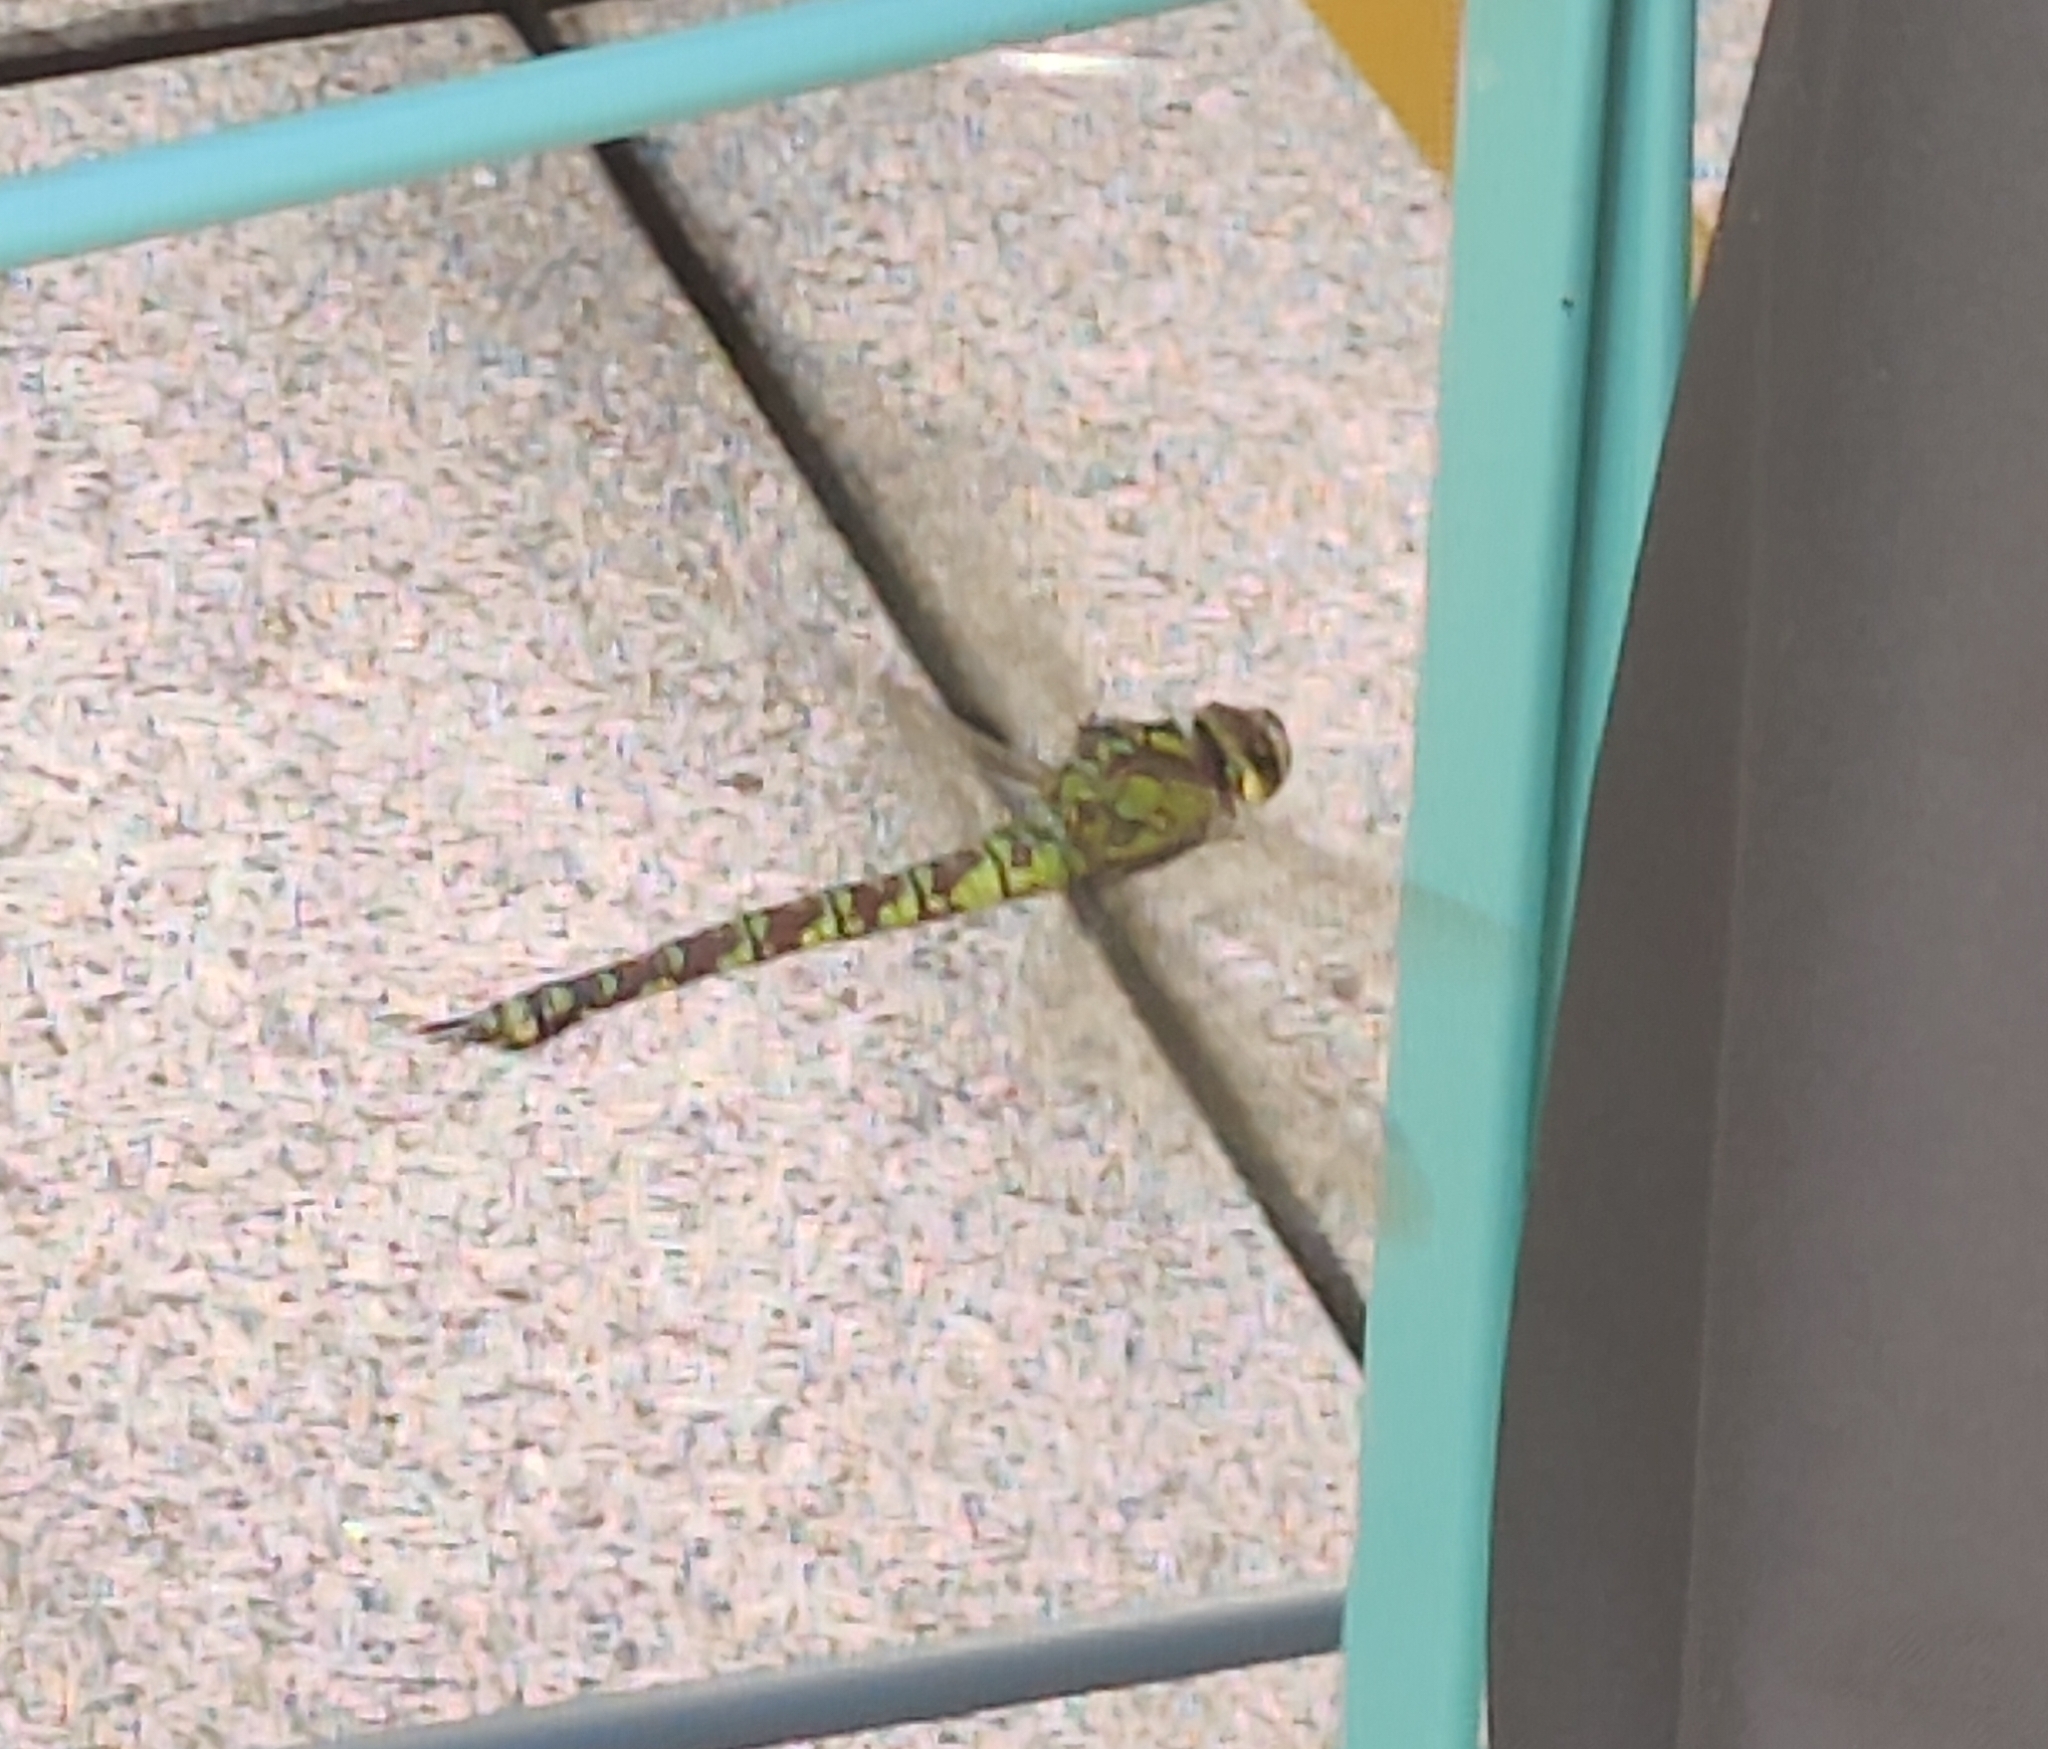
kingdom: Animalia
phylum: Arthropoda
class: Insecta
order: Odonata
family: Aeshnidae
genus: Aeshna
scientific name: Aeshna cyanea
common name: Southern hawker
